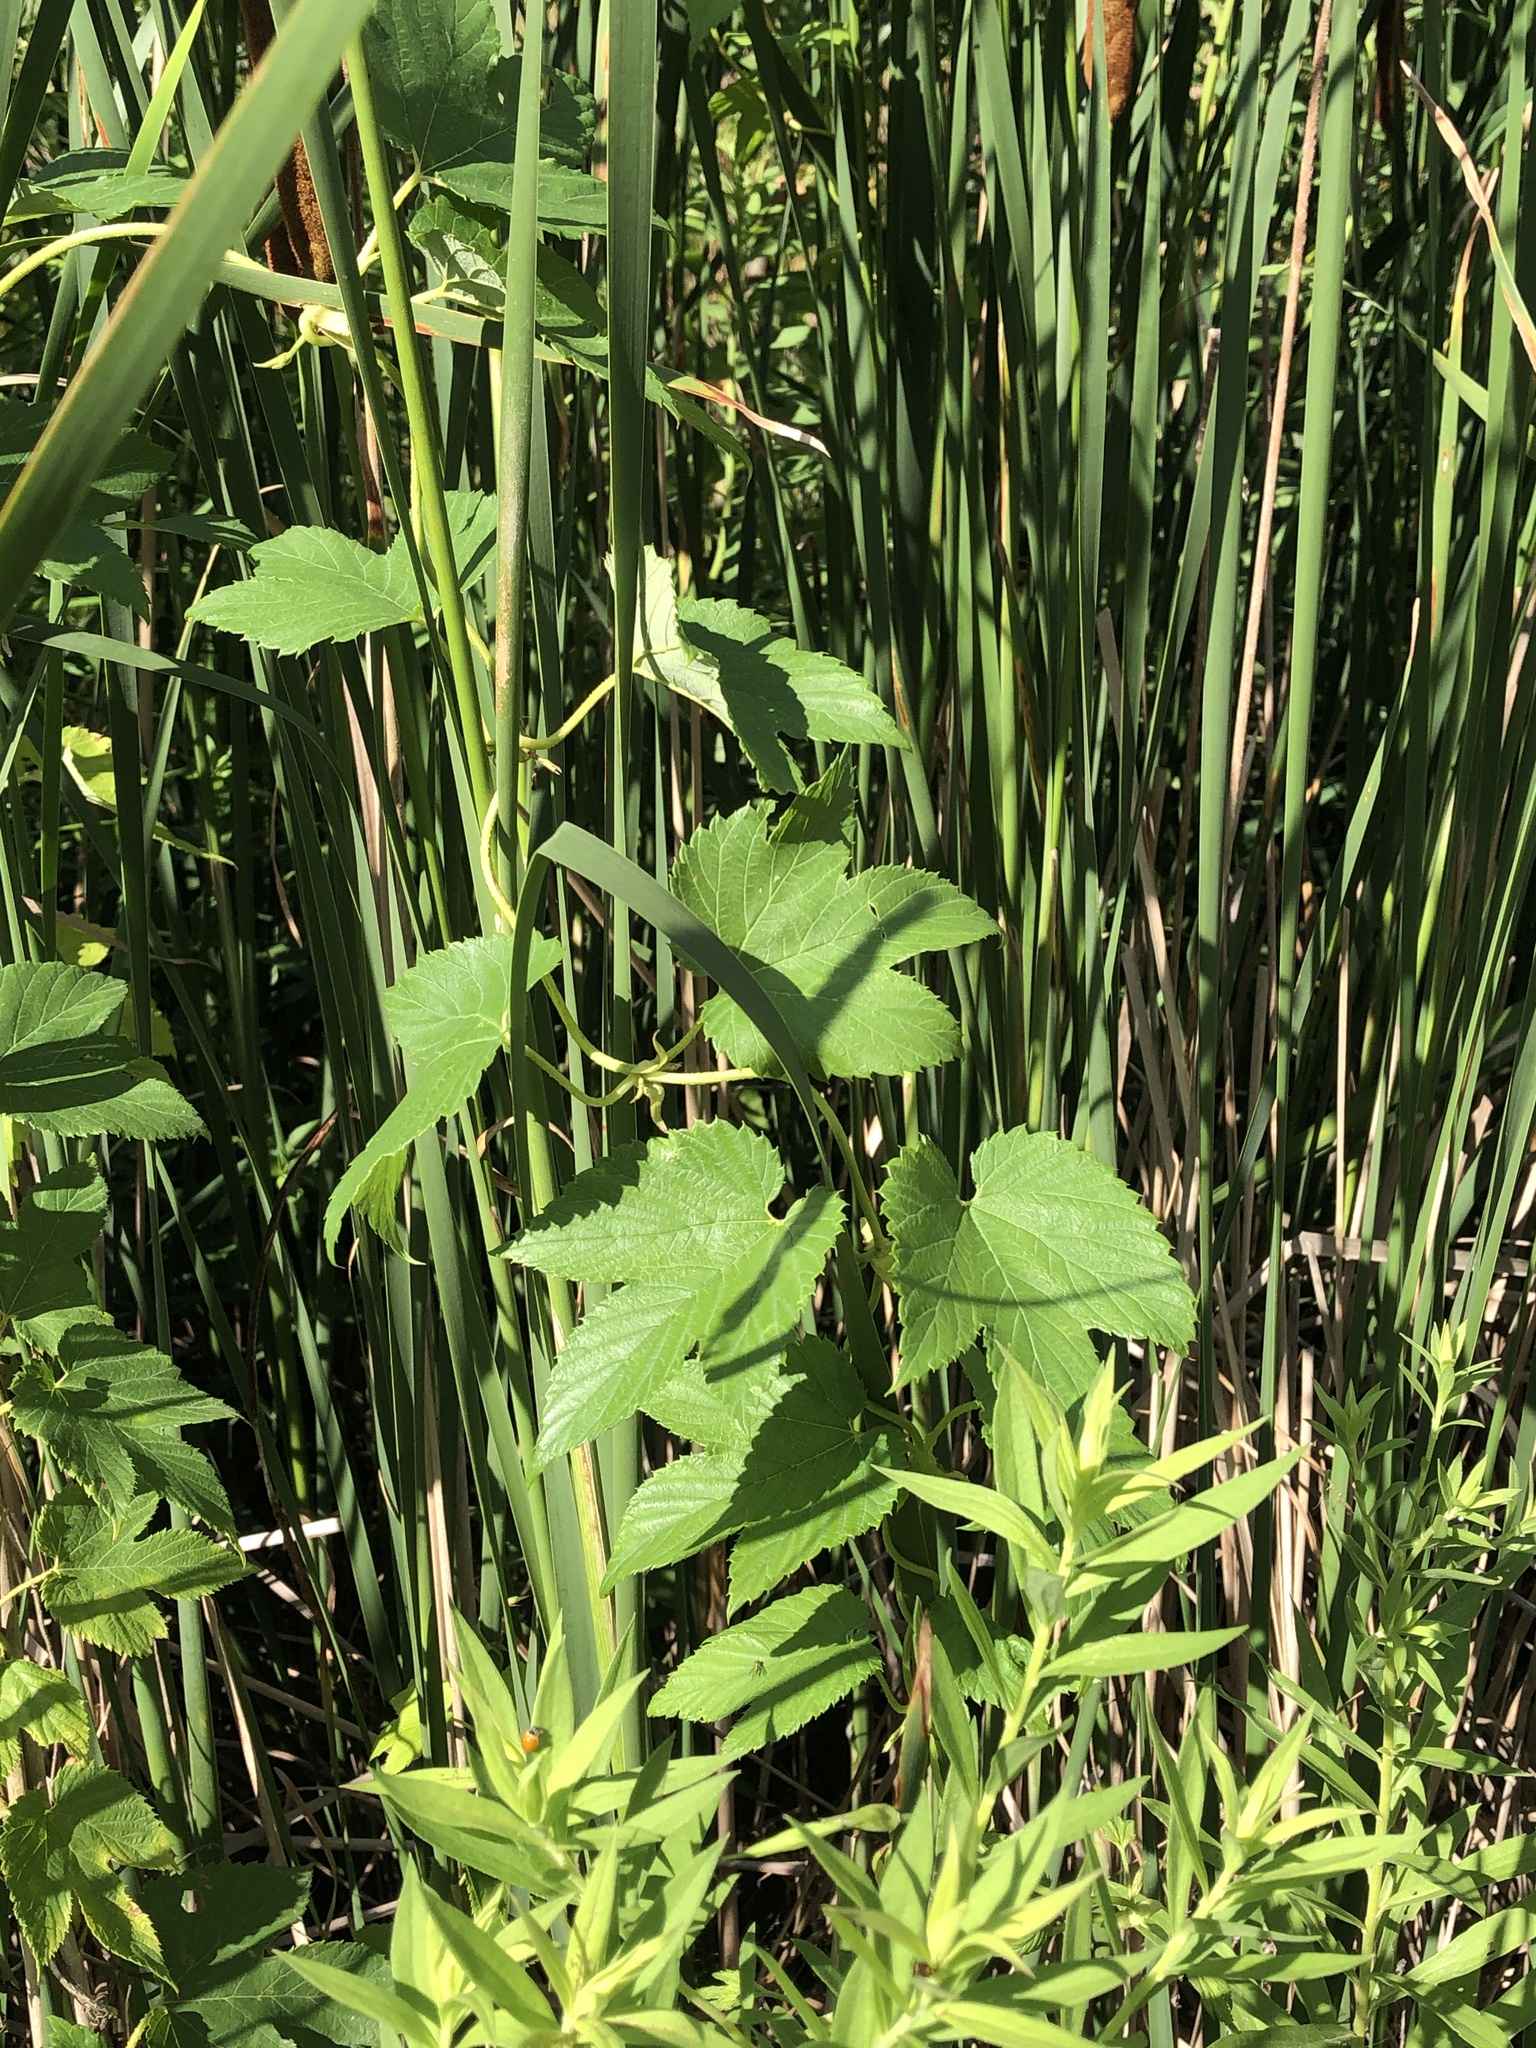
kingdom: Plantae
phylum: Tracheophyta
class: Magnoliopsida
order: Rosales
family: Cannabaceae
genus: Humulus
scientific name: Humulus lupulus
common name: Hop
